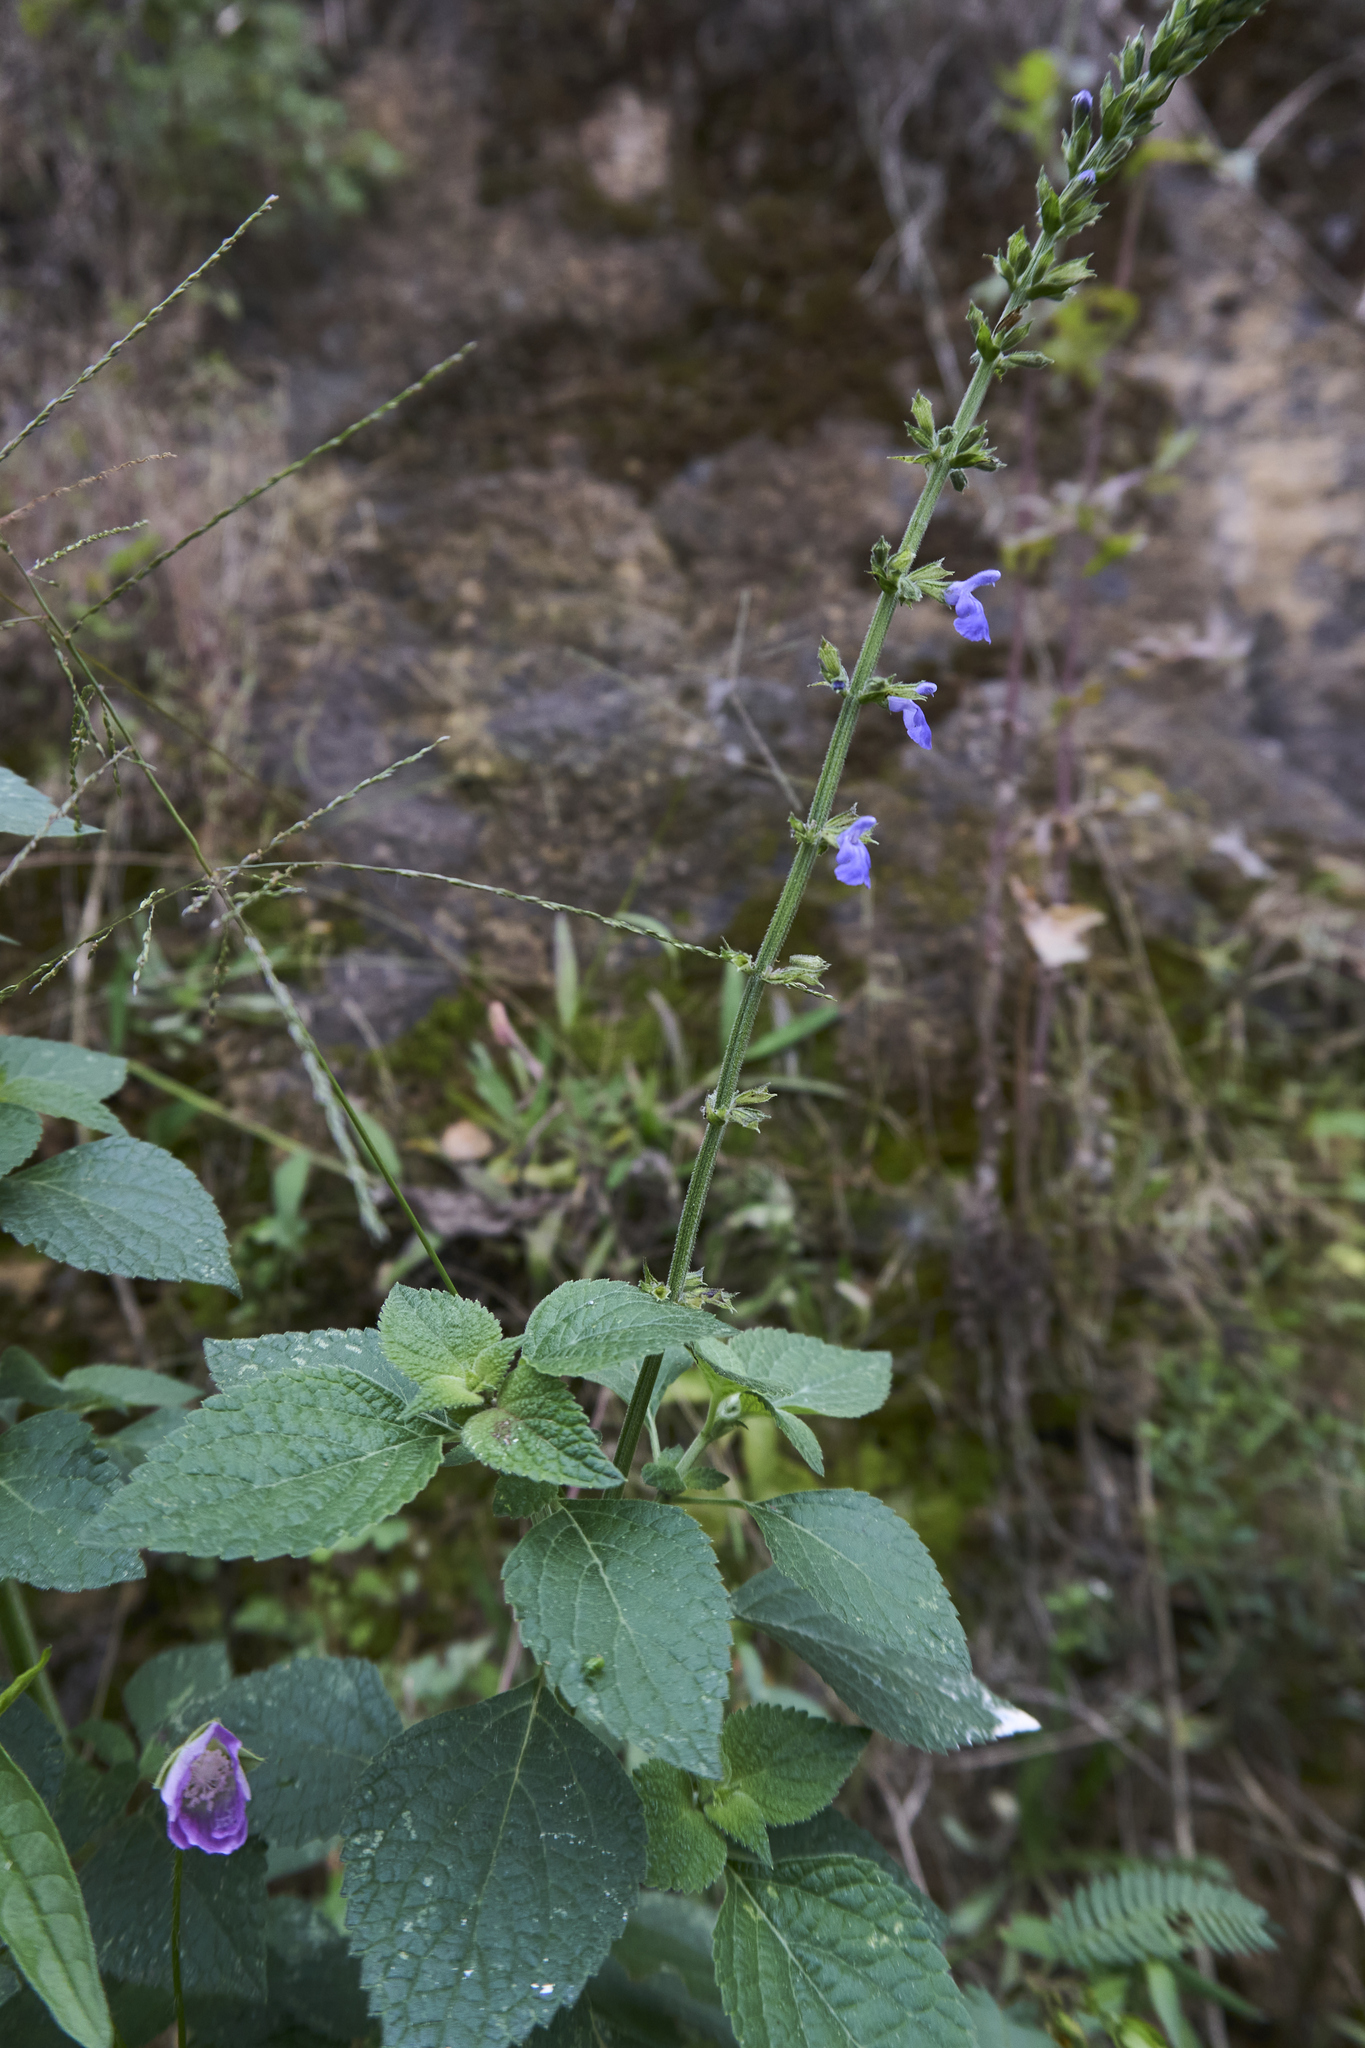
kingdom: Plantae
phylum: Tracheophyta
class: Magnoliopsida
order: Lamiales
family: Lamiaceae
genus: Salvia
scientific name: Salvia longispicata
